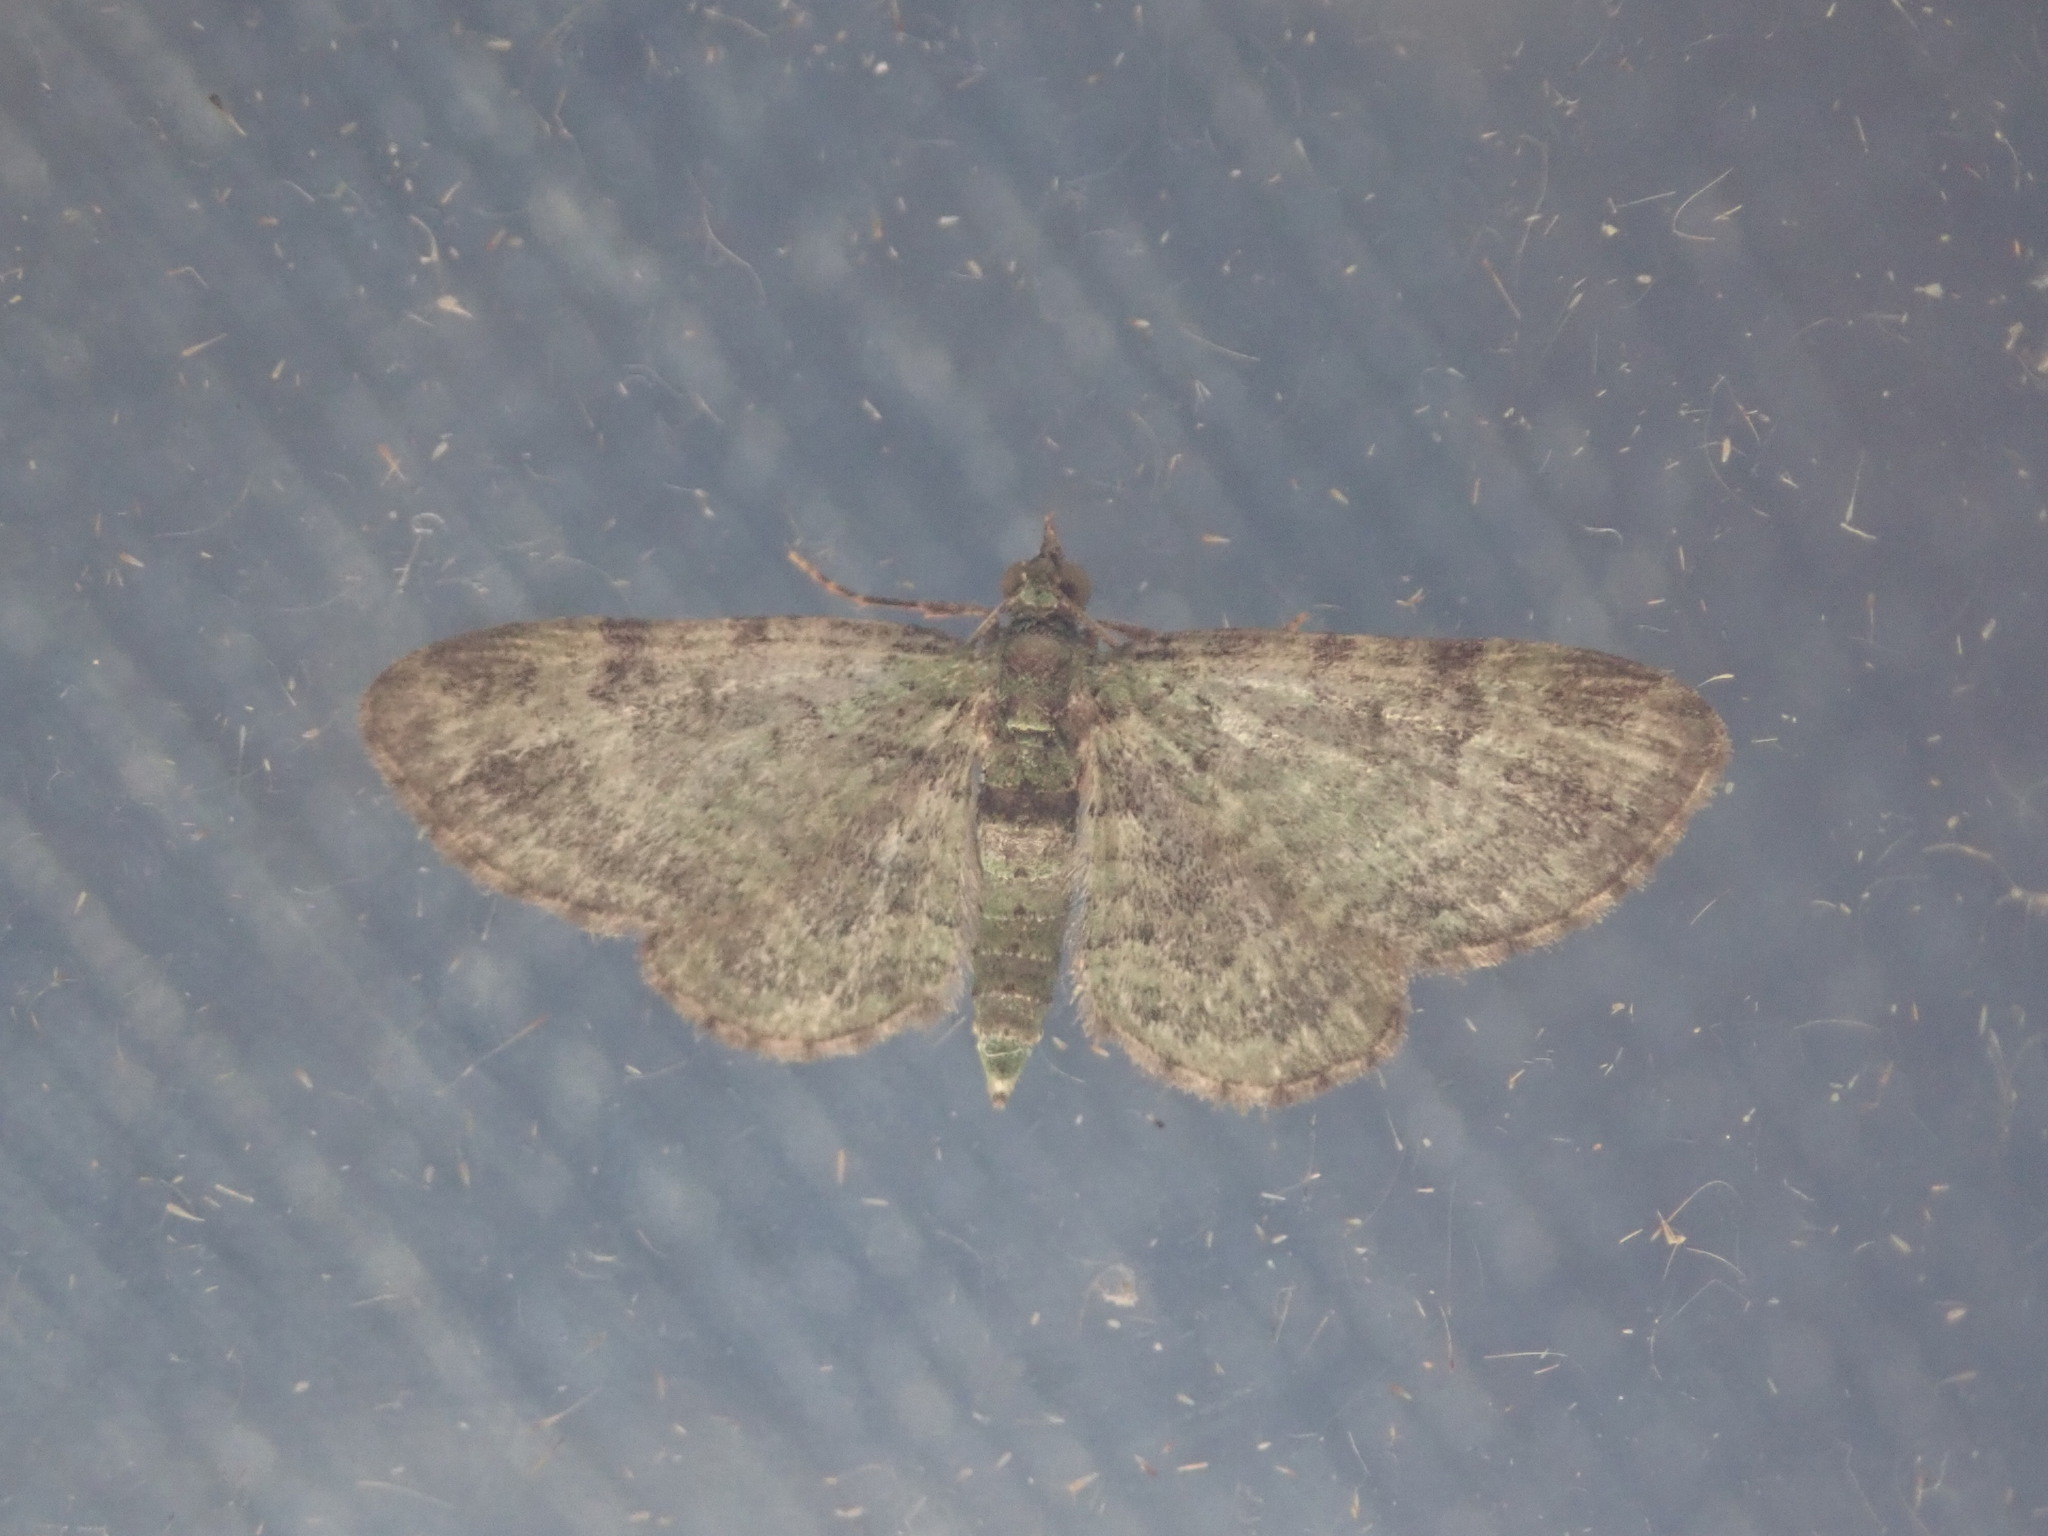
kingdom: Animalia
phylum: Arthropoda
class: Insecta
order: Lepidoptera
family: Geometridae
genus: Pasiphila
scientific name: Pasiphila rectangulata
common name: Green pug
